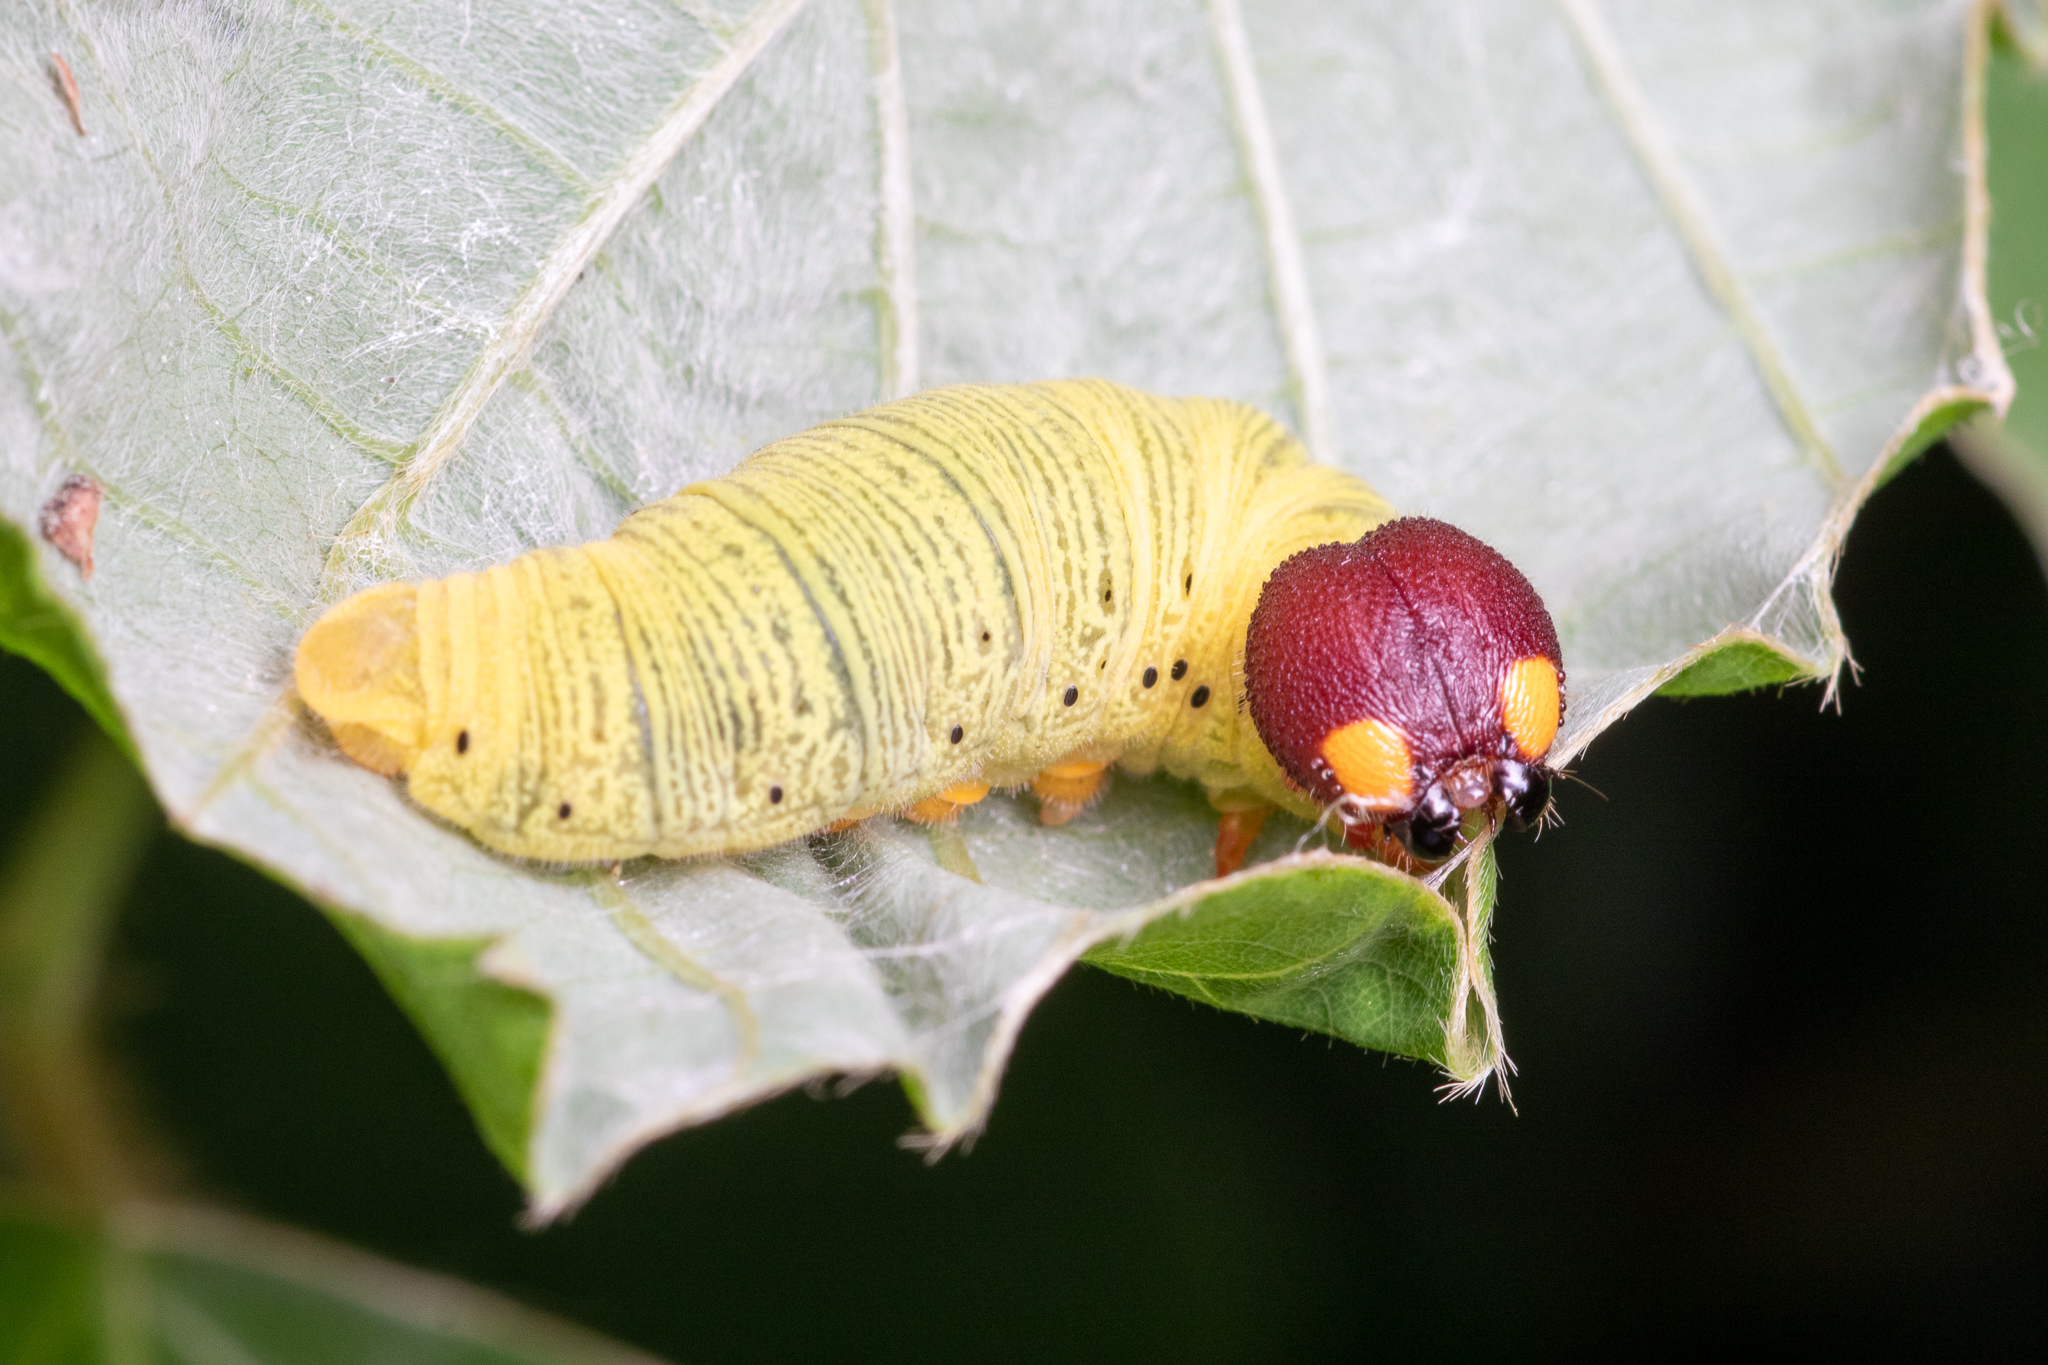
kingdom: Animalia
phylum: Arthropoda
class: Insecta
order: Lepidoptera
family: Hesperiidae
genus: Epargyreus
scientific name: Epargyreus clarus
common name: Silver-spotted skipper
